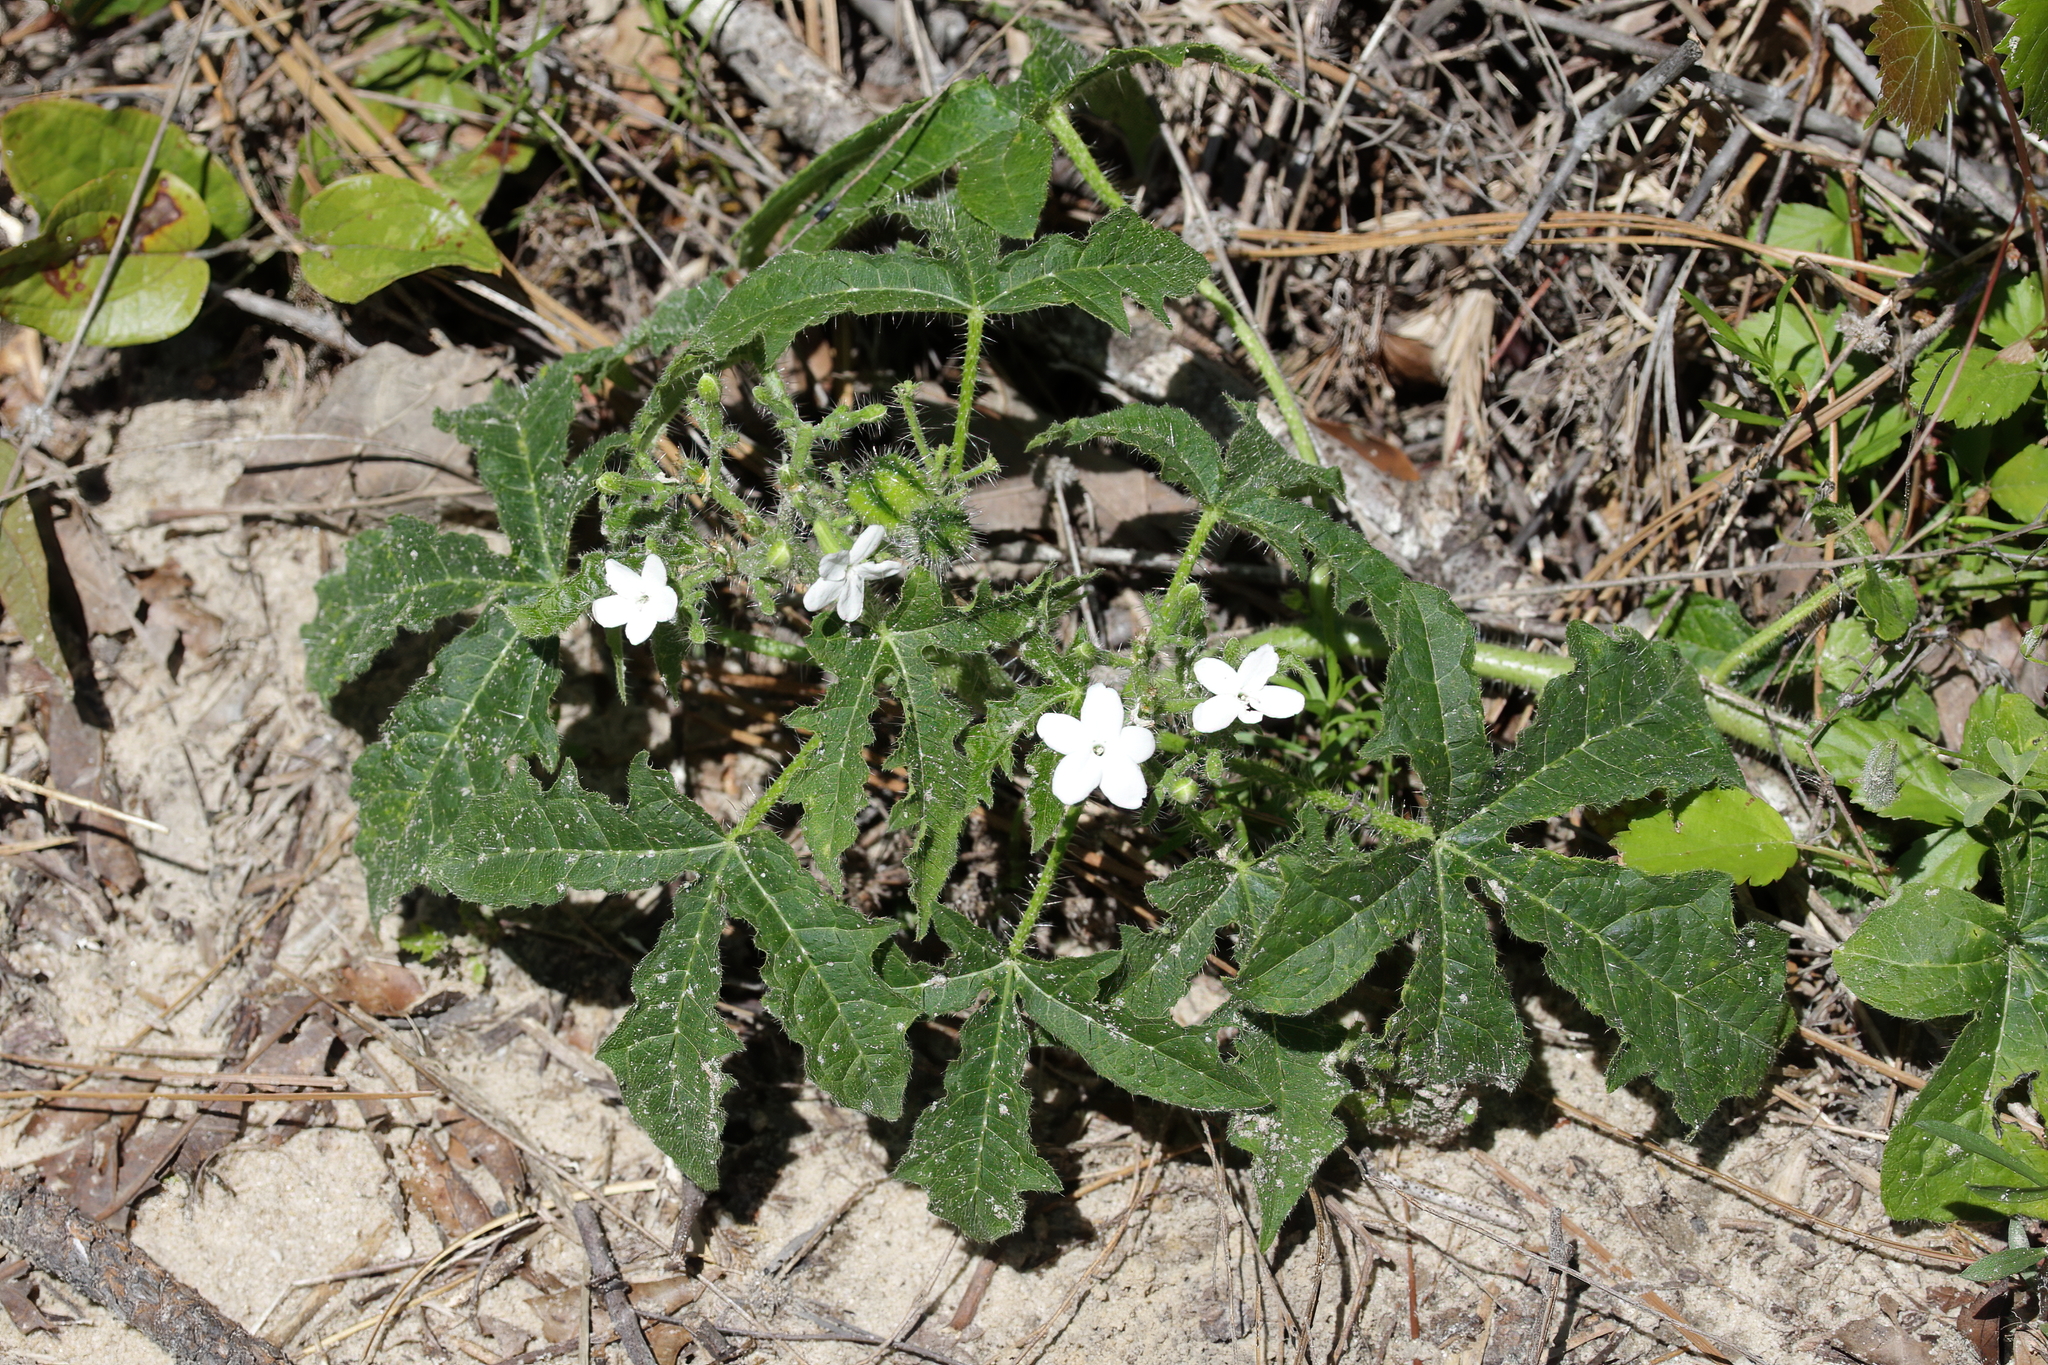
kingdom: Plantae
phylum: Tracheophyta
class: Magnoliopsida
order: Malpighiales
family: Euphorbiaceae
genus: Cnidoscolus
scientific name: Cnidoscolus stimulosus
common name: Bull-nettle
